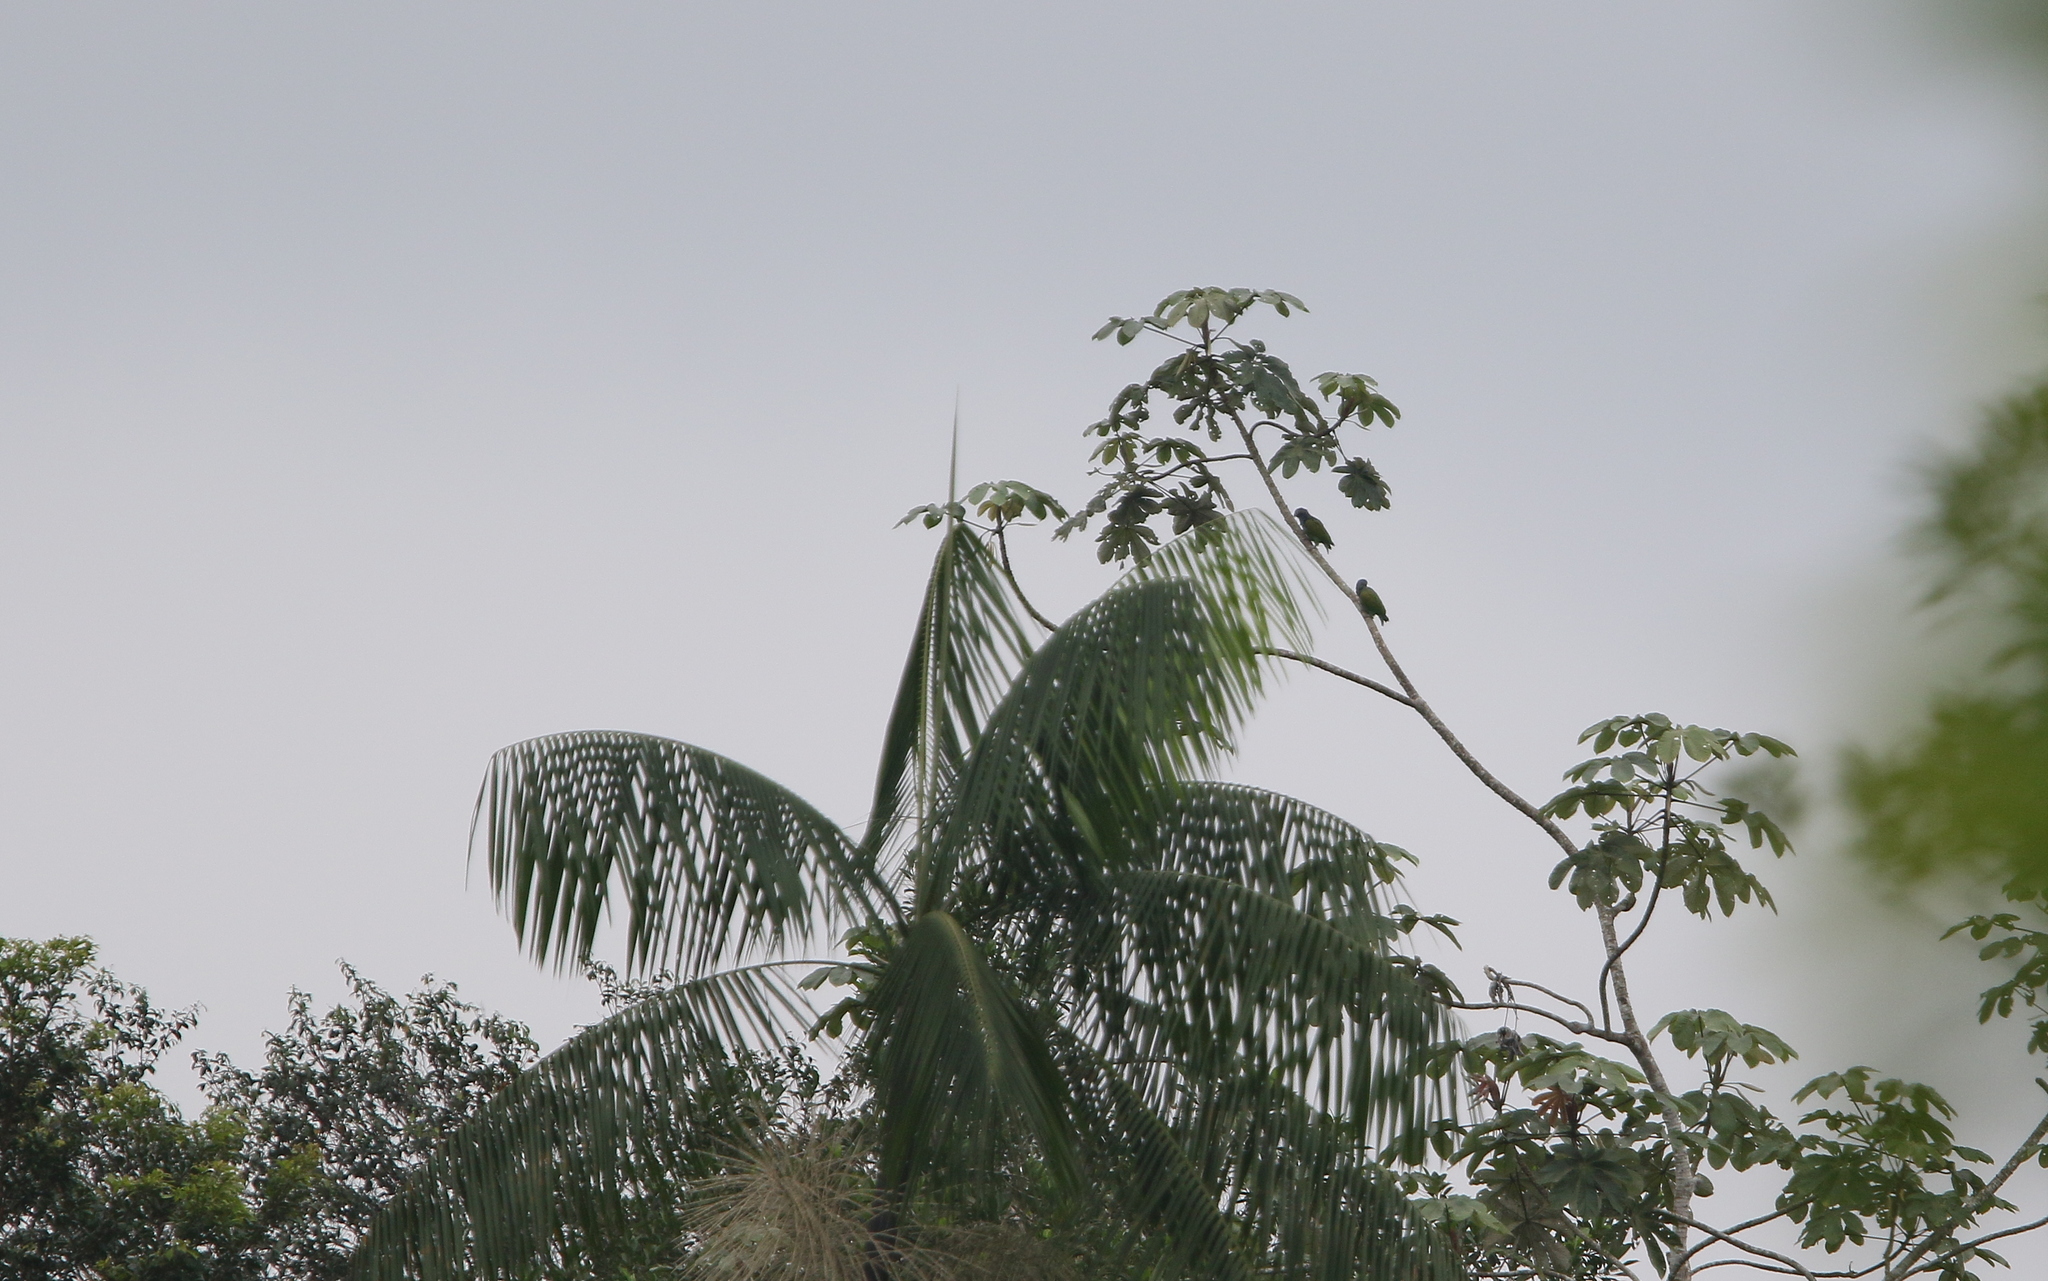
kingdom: Animalia
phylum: Chordata
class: Aves
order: Psittaciformes
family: Psittacidae
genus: Pionus
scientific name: Pionus menstruus
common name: Blue-headed parrot
